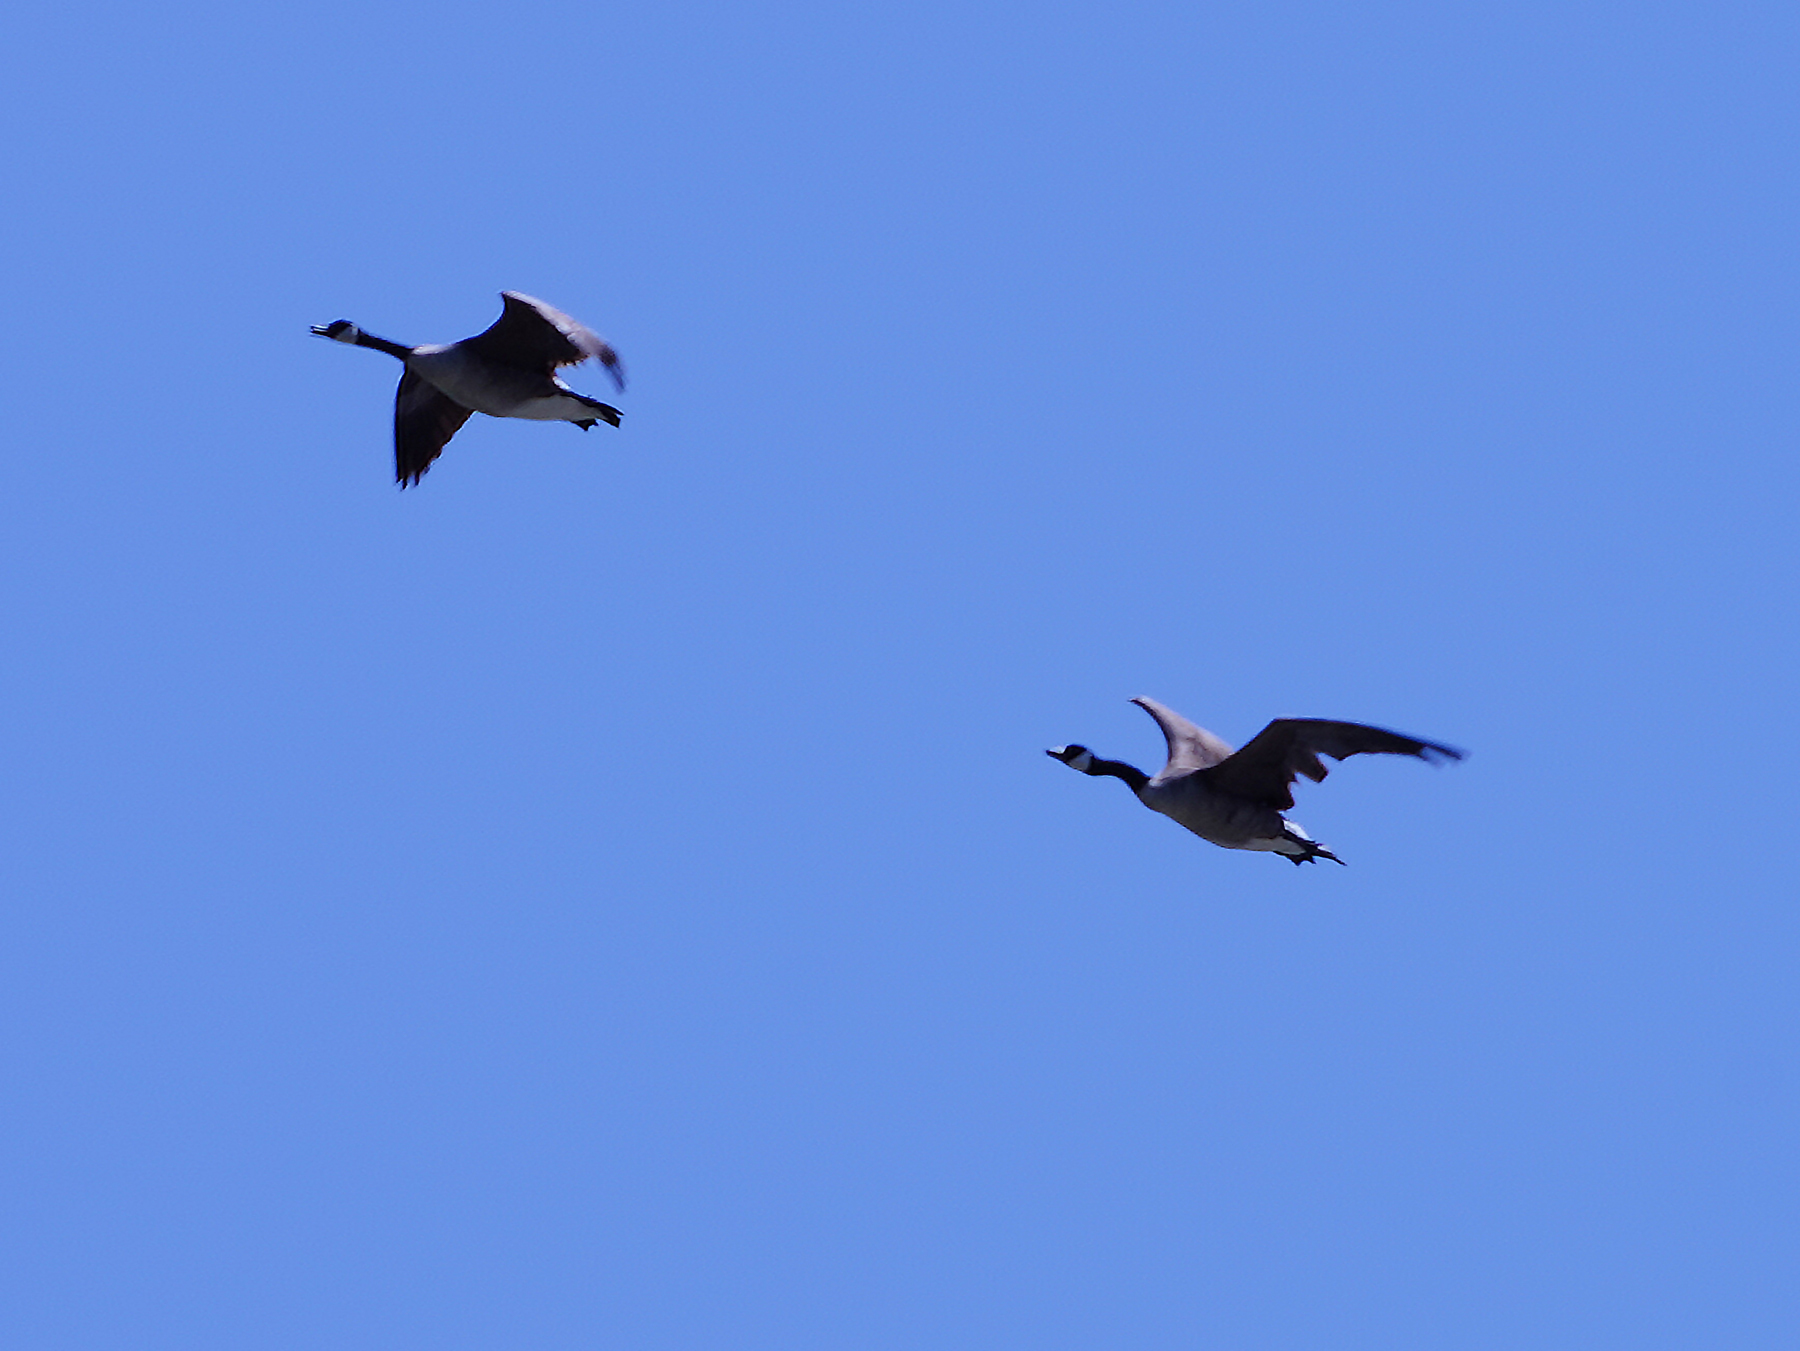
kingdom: Animalia
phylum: Chordata
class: Aves
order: Anseriformes
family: Anatidae
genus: Branta
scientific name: Branta canadensis
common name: Canada goose
